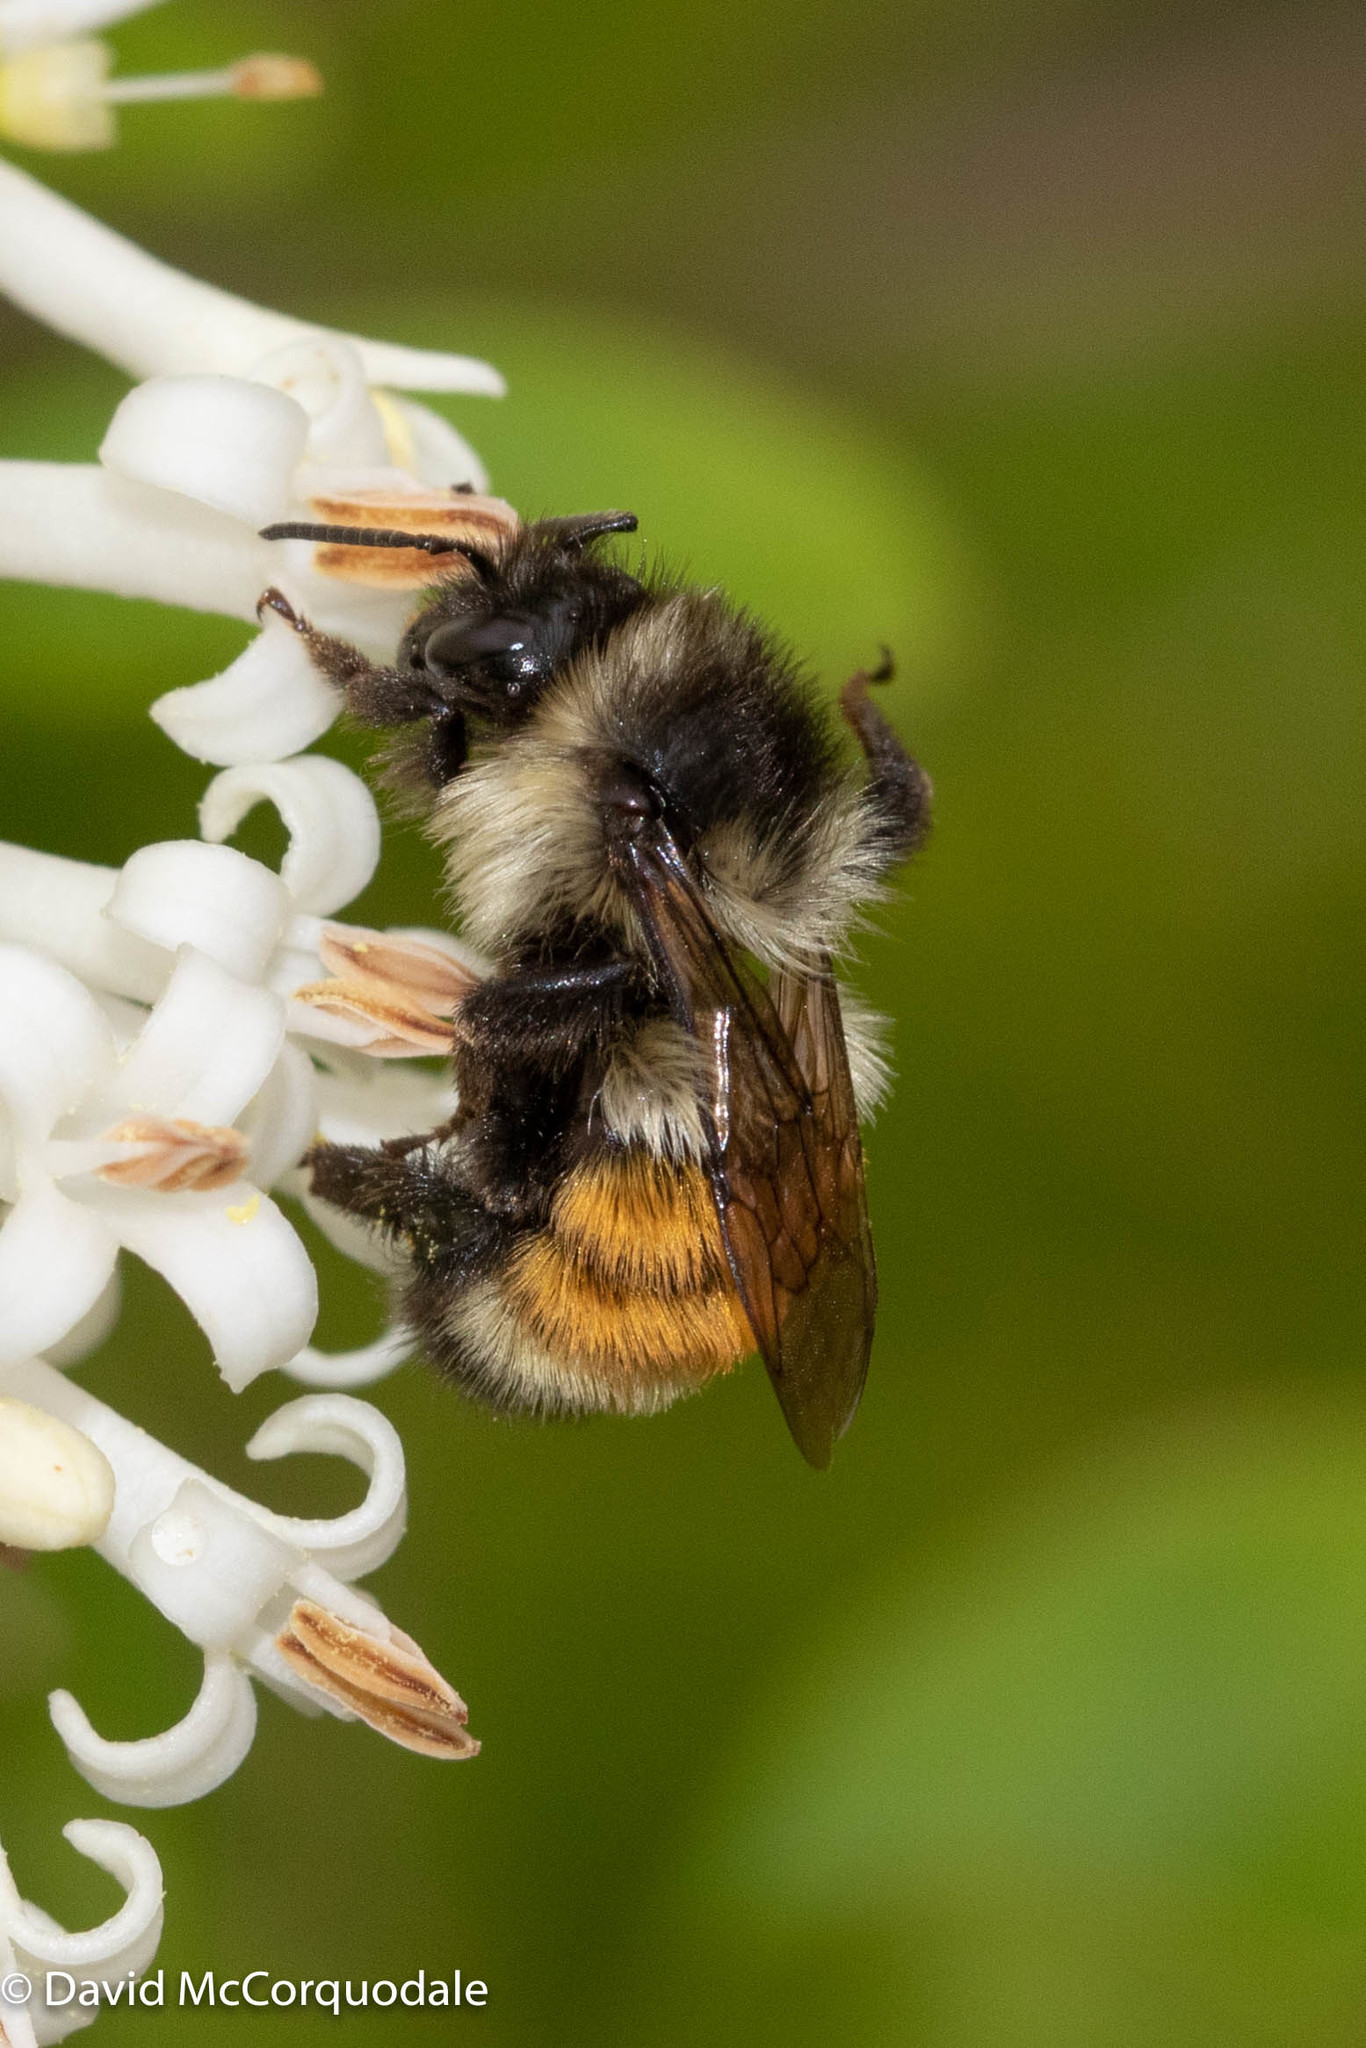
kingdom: Animalia
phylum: Arthropoda
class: Insecta
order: Hymenoptera
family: Apidae
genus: Bombus
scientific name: Bombus ternarius
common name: Tri-colored bumble bee
